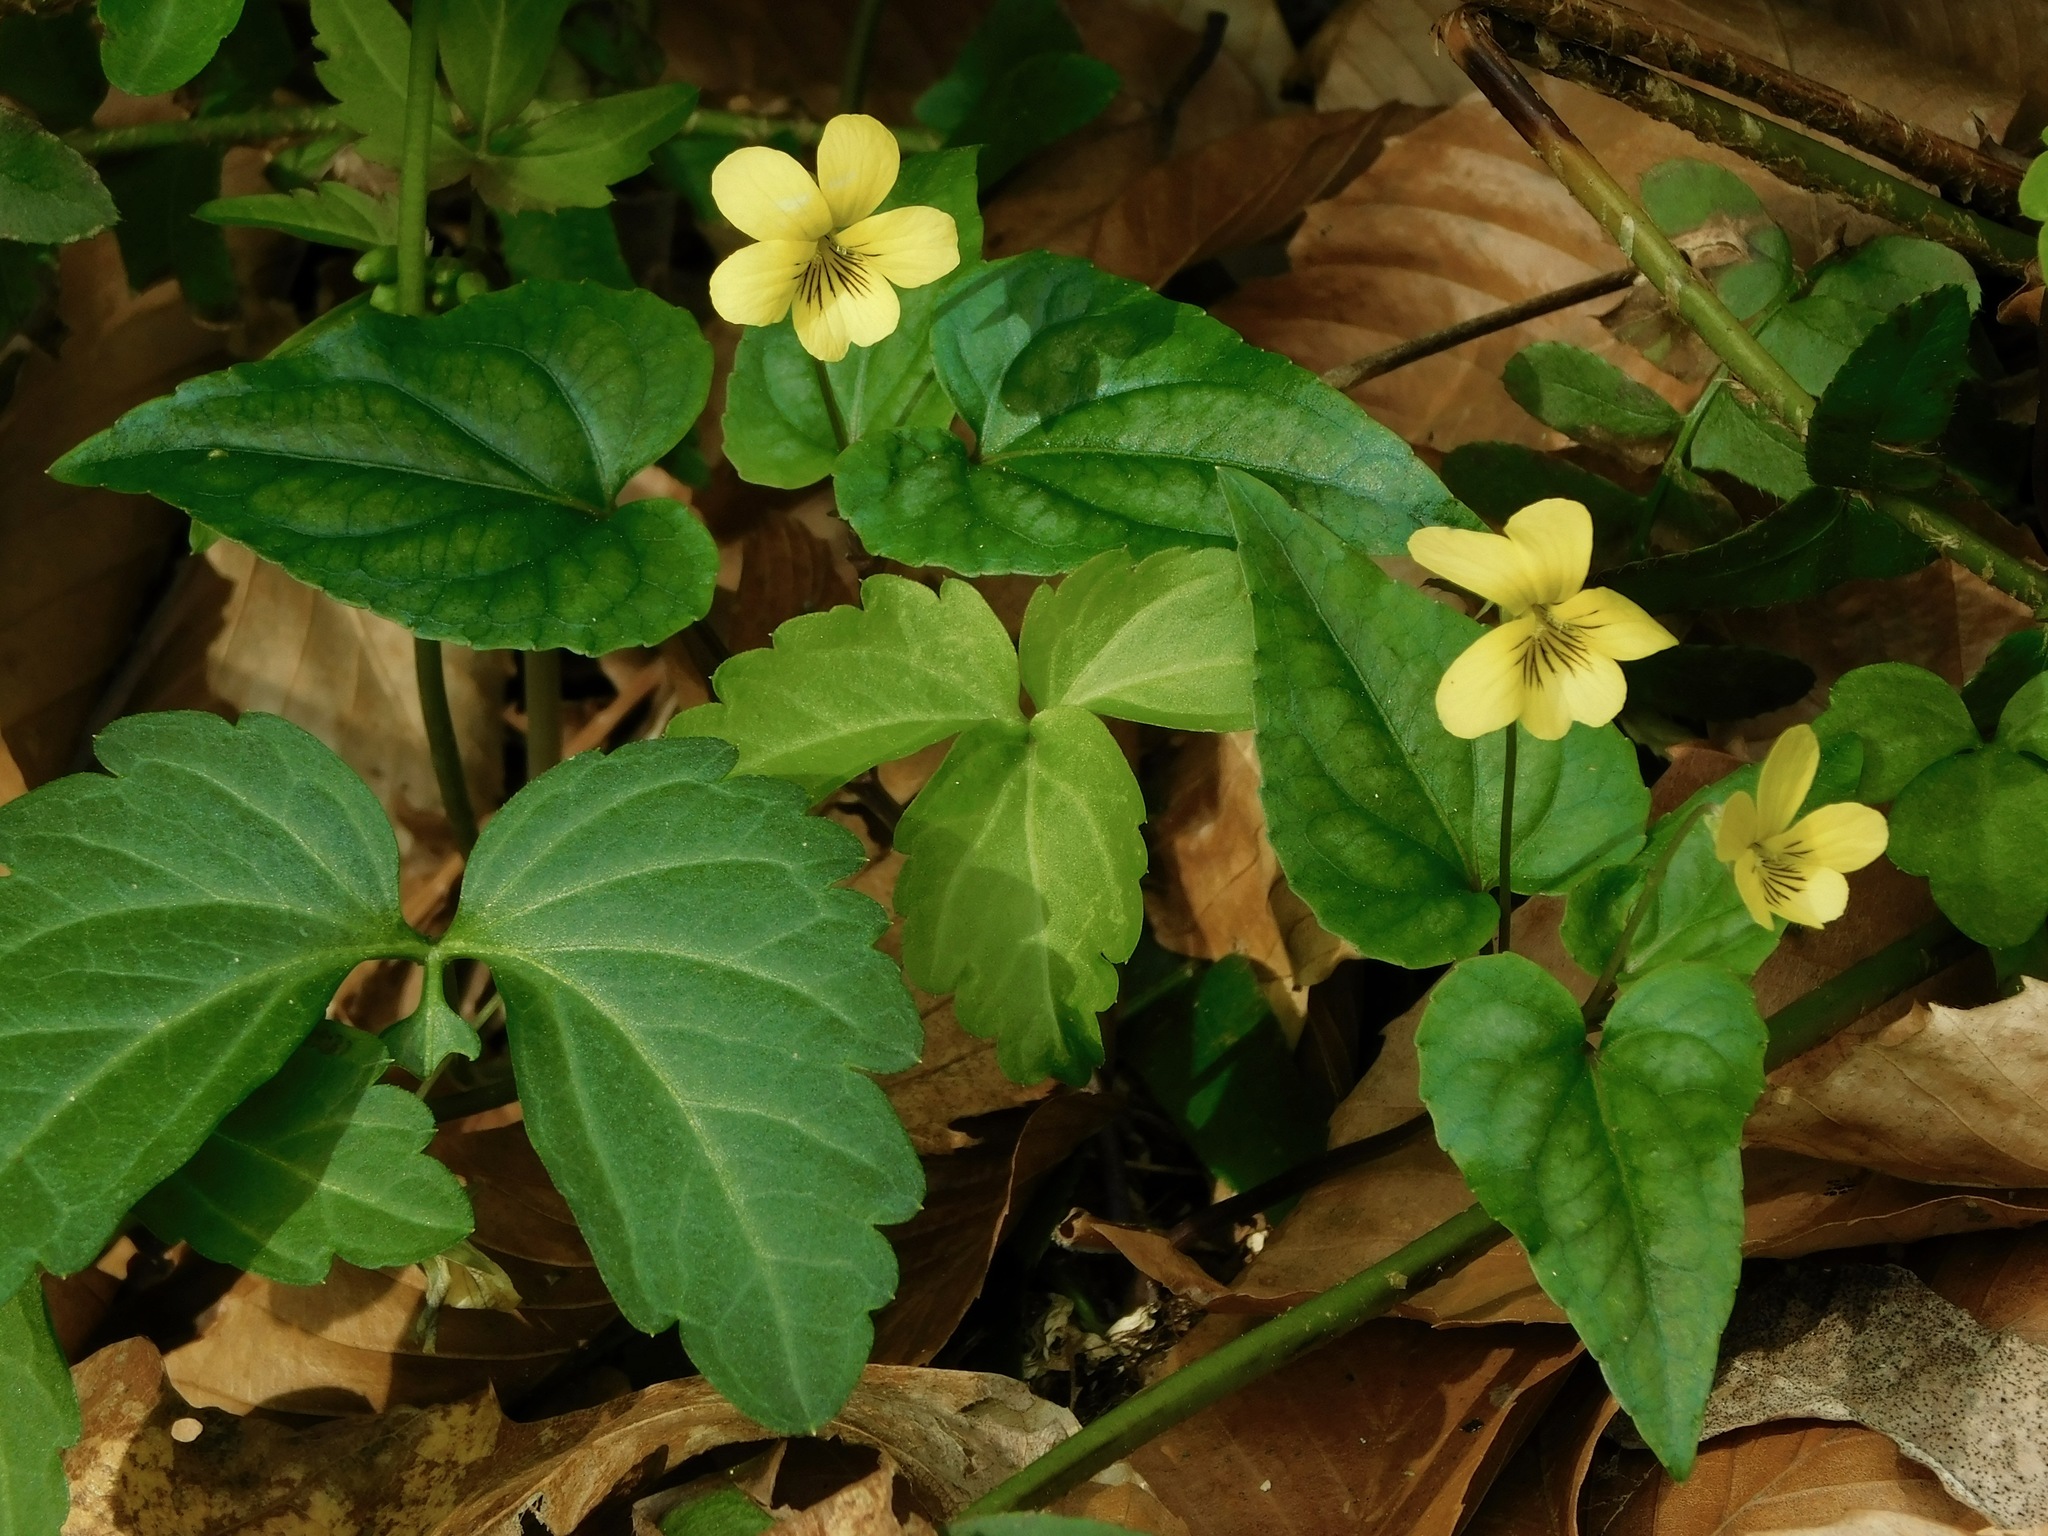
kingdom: Plantae
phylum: Tracheophyta
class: Magnoliopsida
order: Malpighiales
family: Violaceae
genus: Viola
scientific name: Viola hastata
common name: Spear-leaf violet
